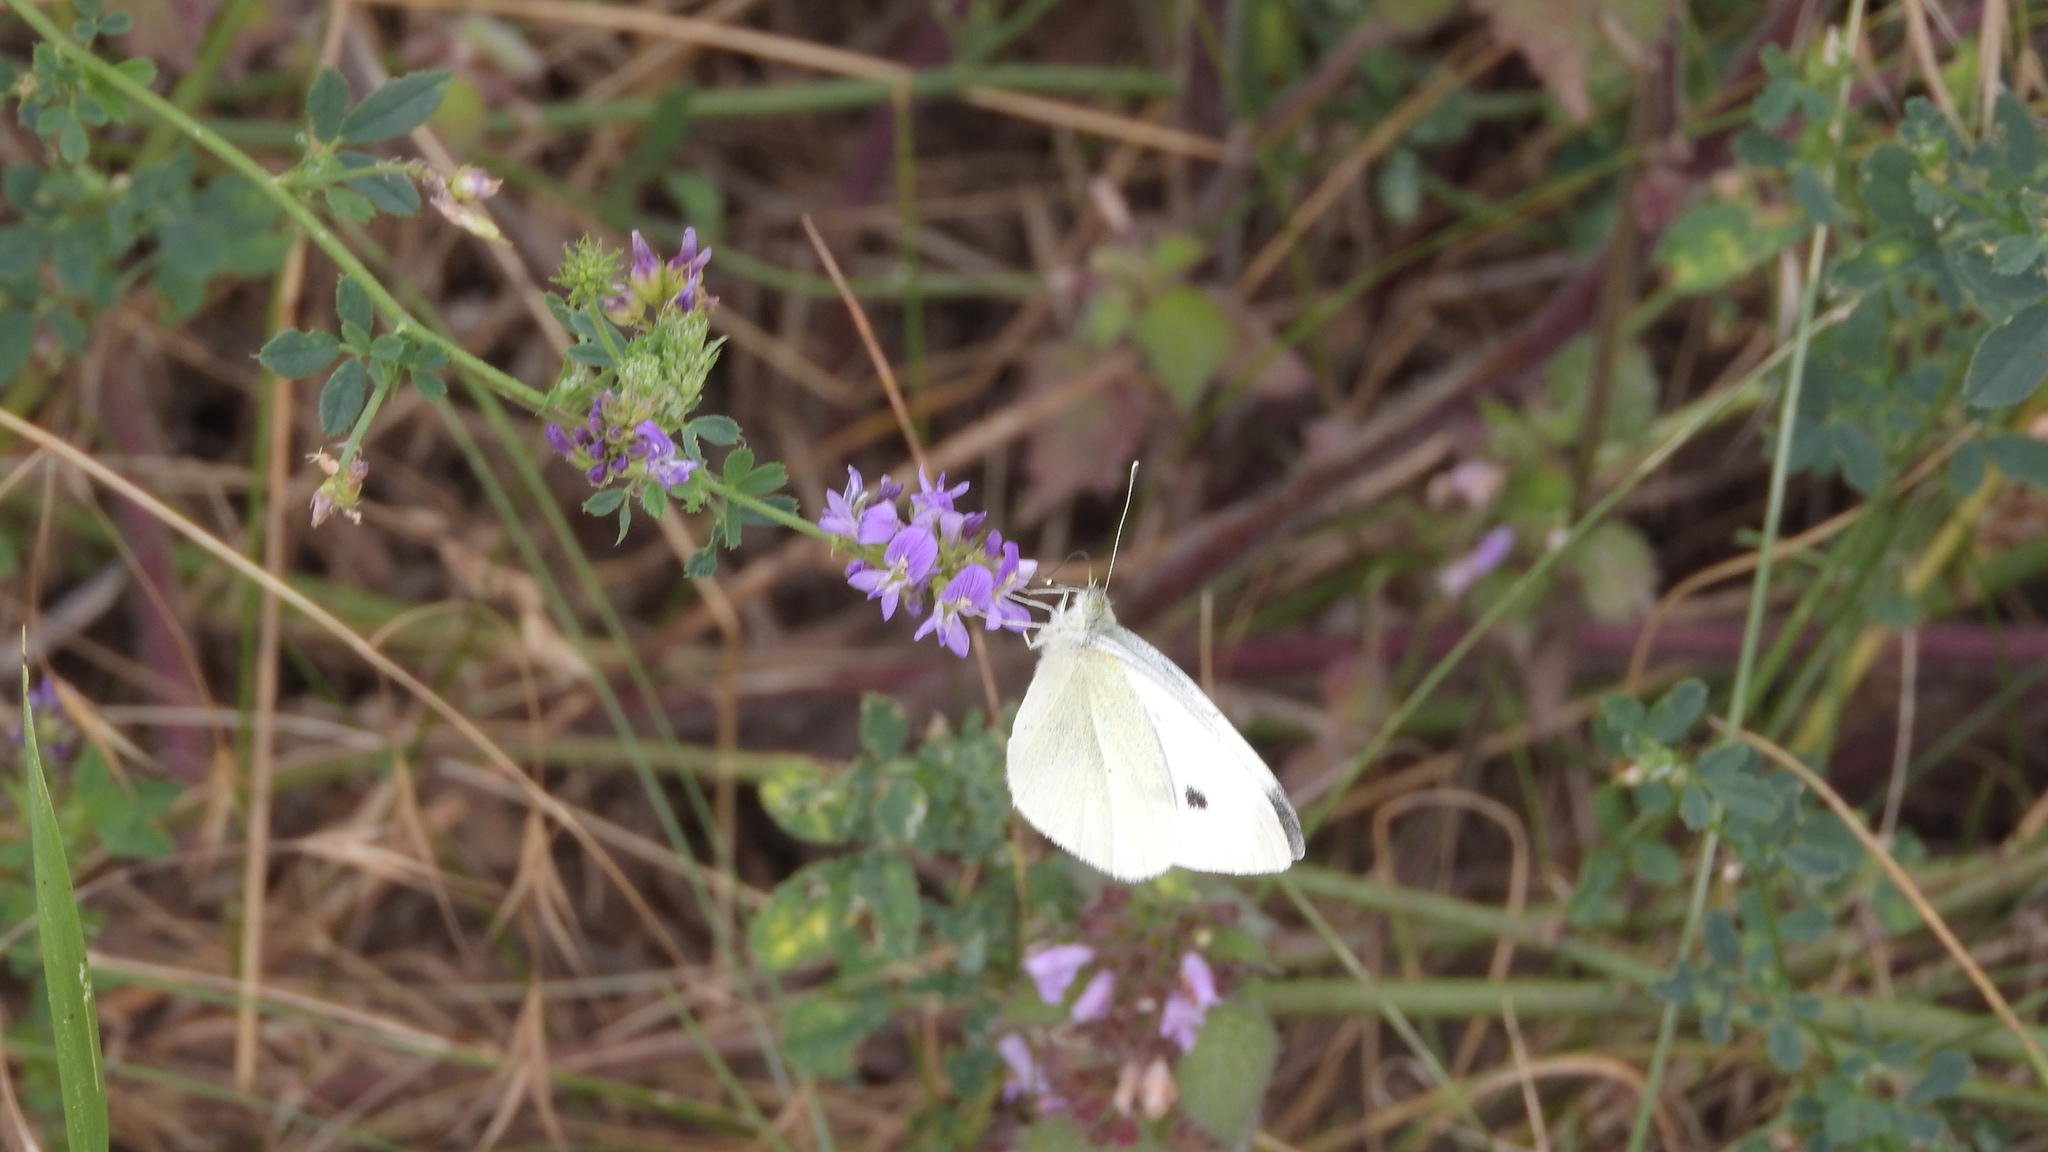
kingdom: Animalia
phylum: Arthropoda
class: Insecta
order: Lepidoptera
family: Pieridae
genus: Pieris
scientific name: Pieris rapae
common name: Small white
